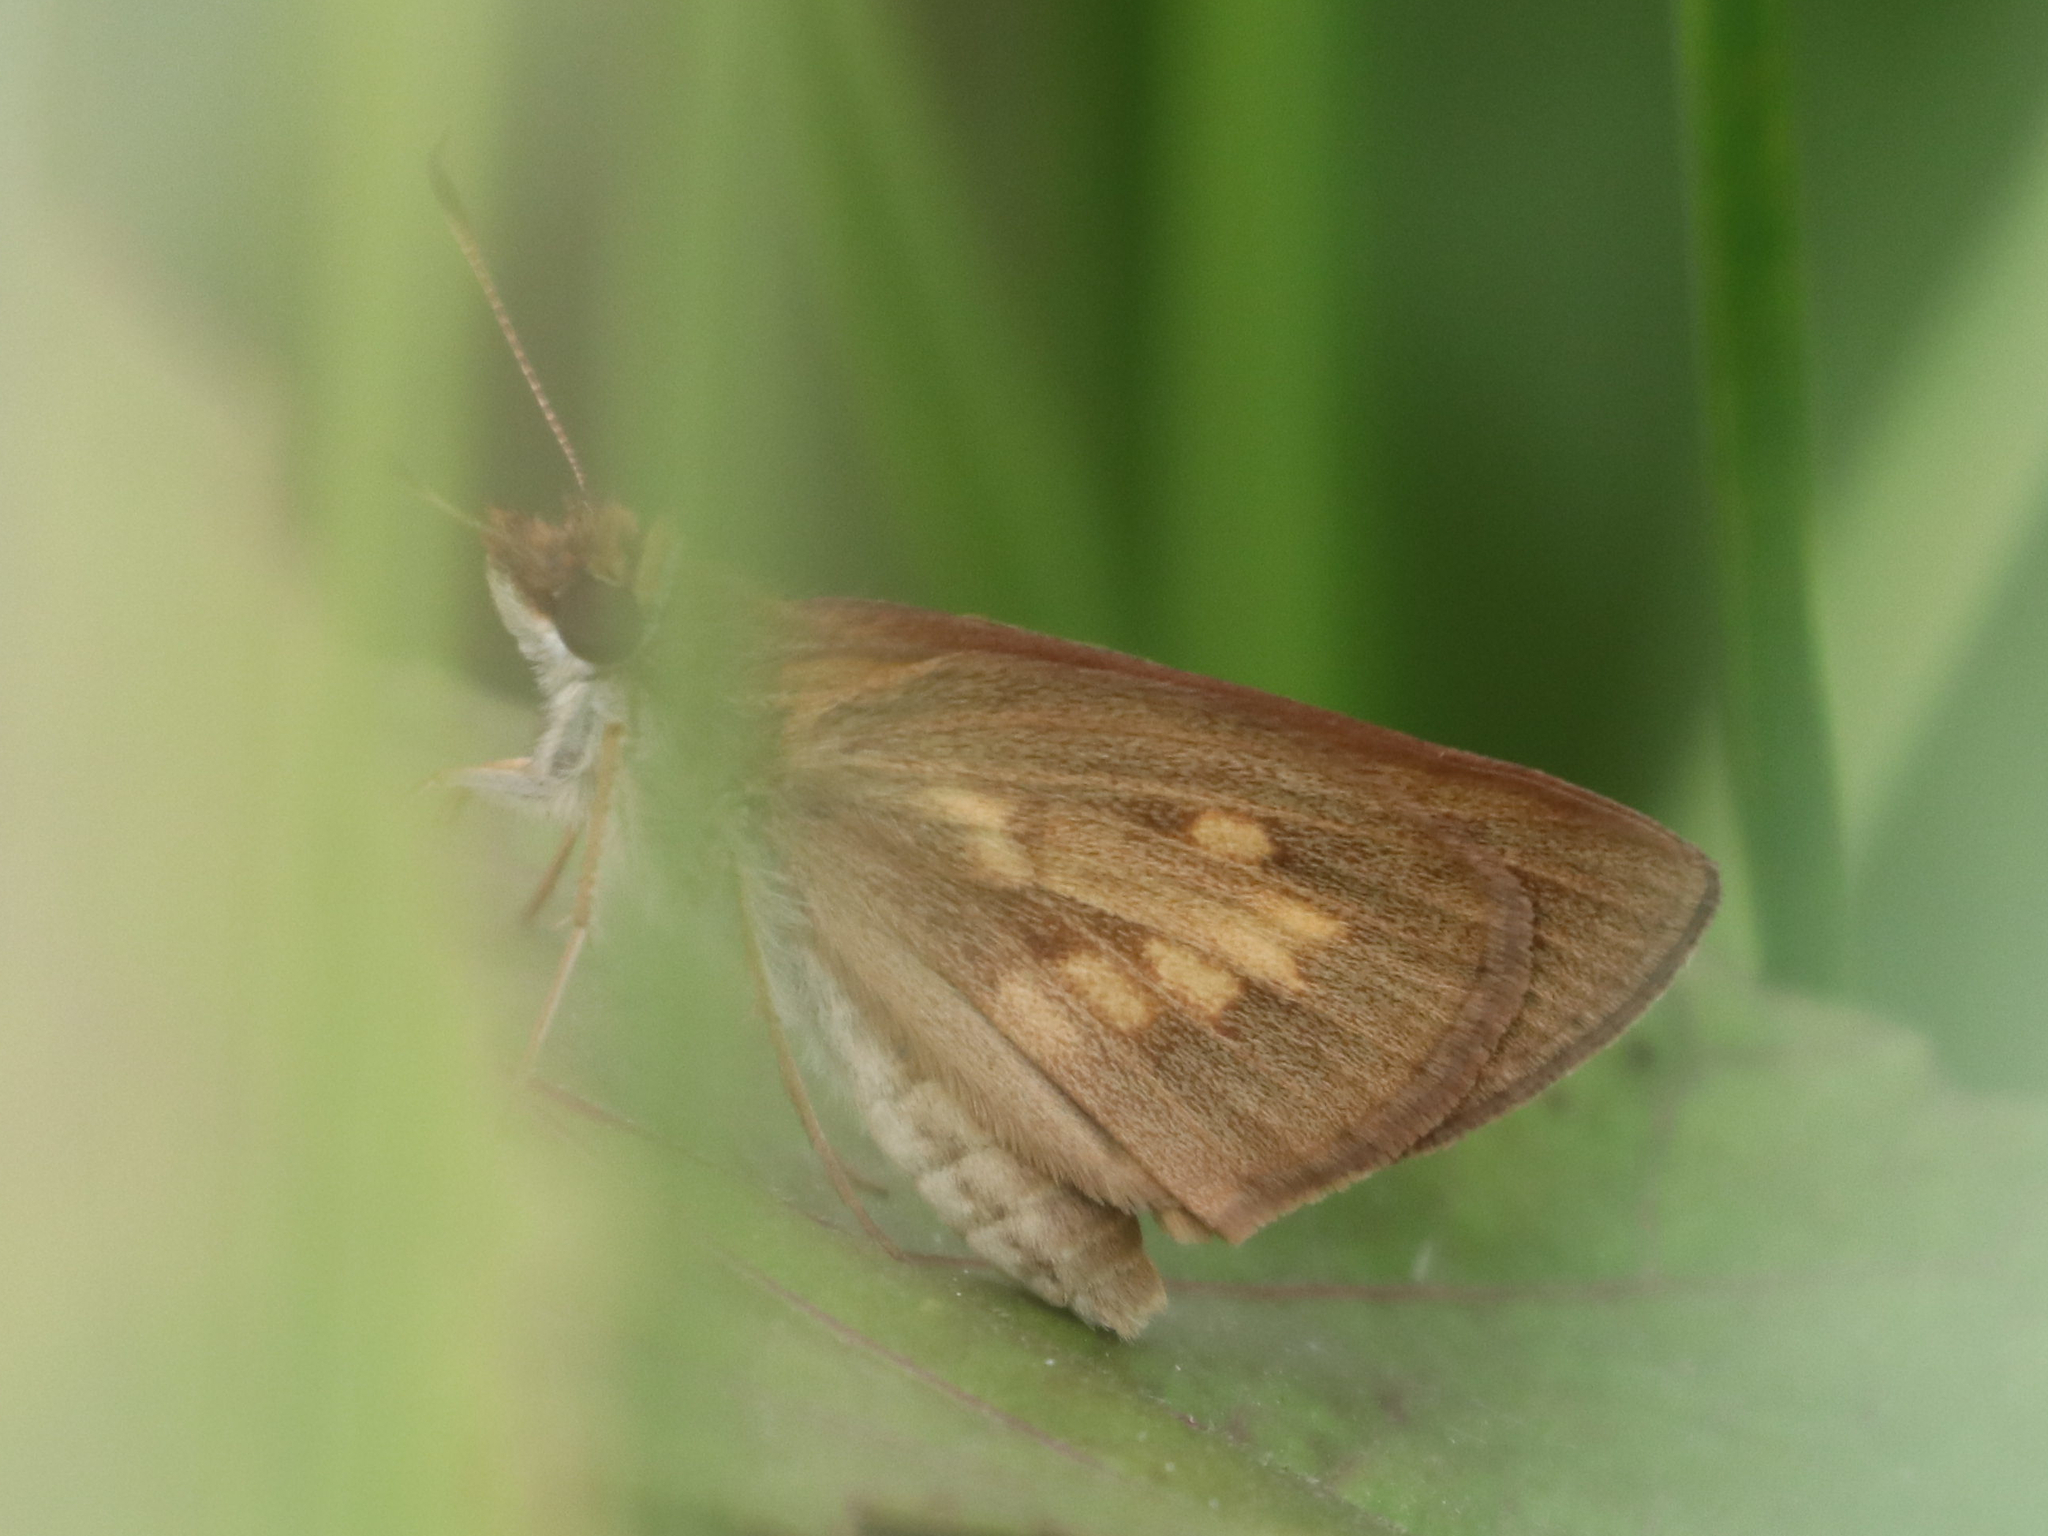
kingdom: Animalia
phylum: Arthropoda
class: Insecta
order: Lepidoptera
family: Hesperiidae
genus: Poanes
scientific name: Poanes viator
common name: Broad-winged skipper
